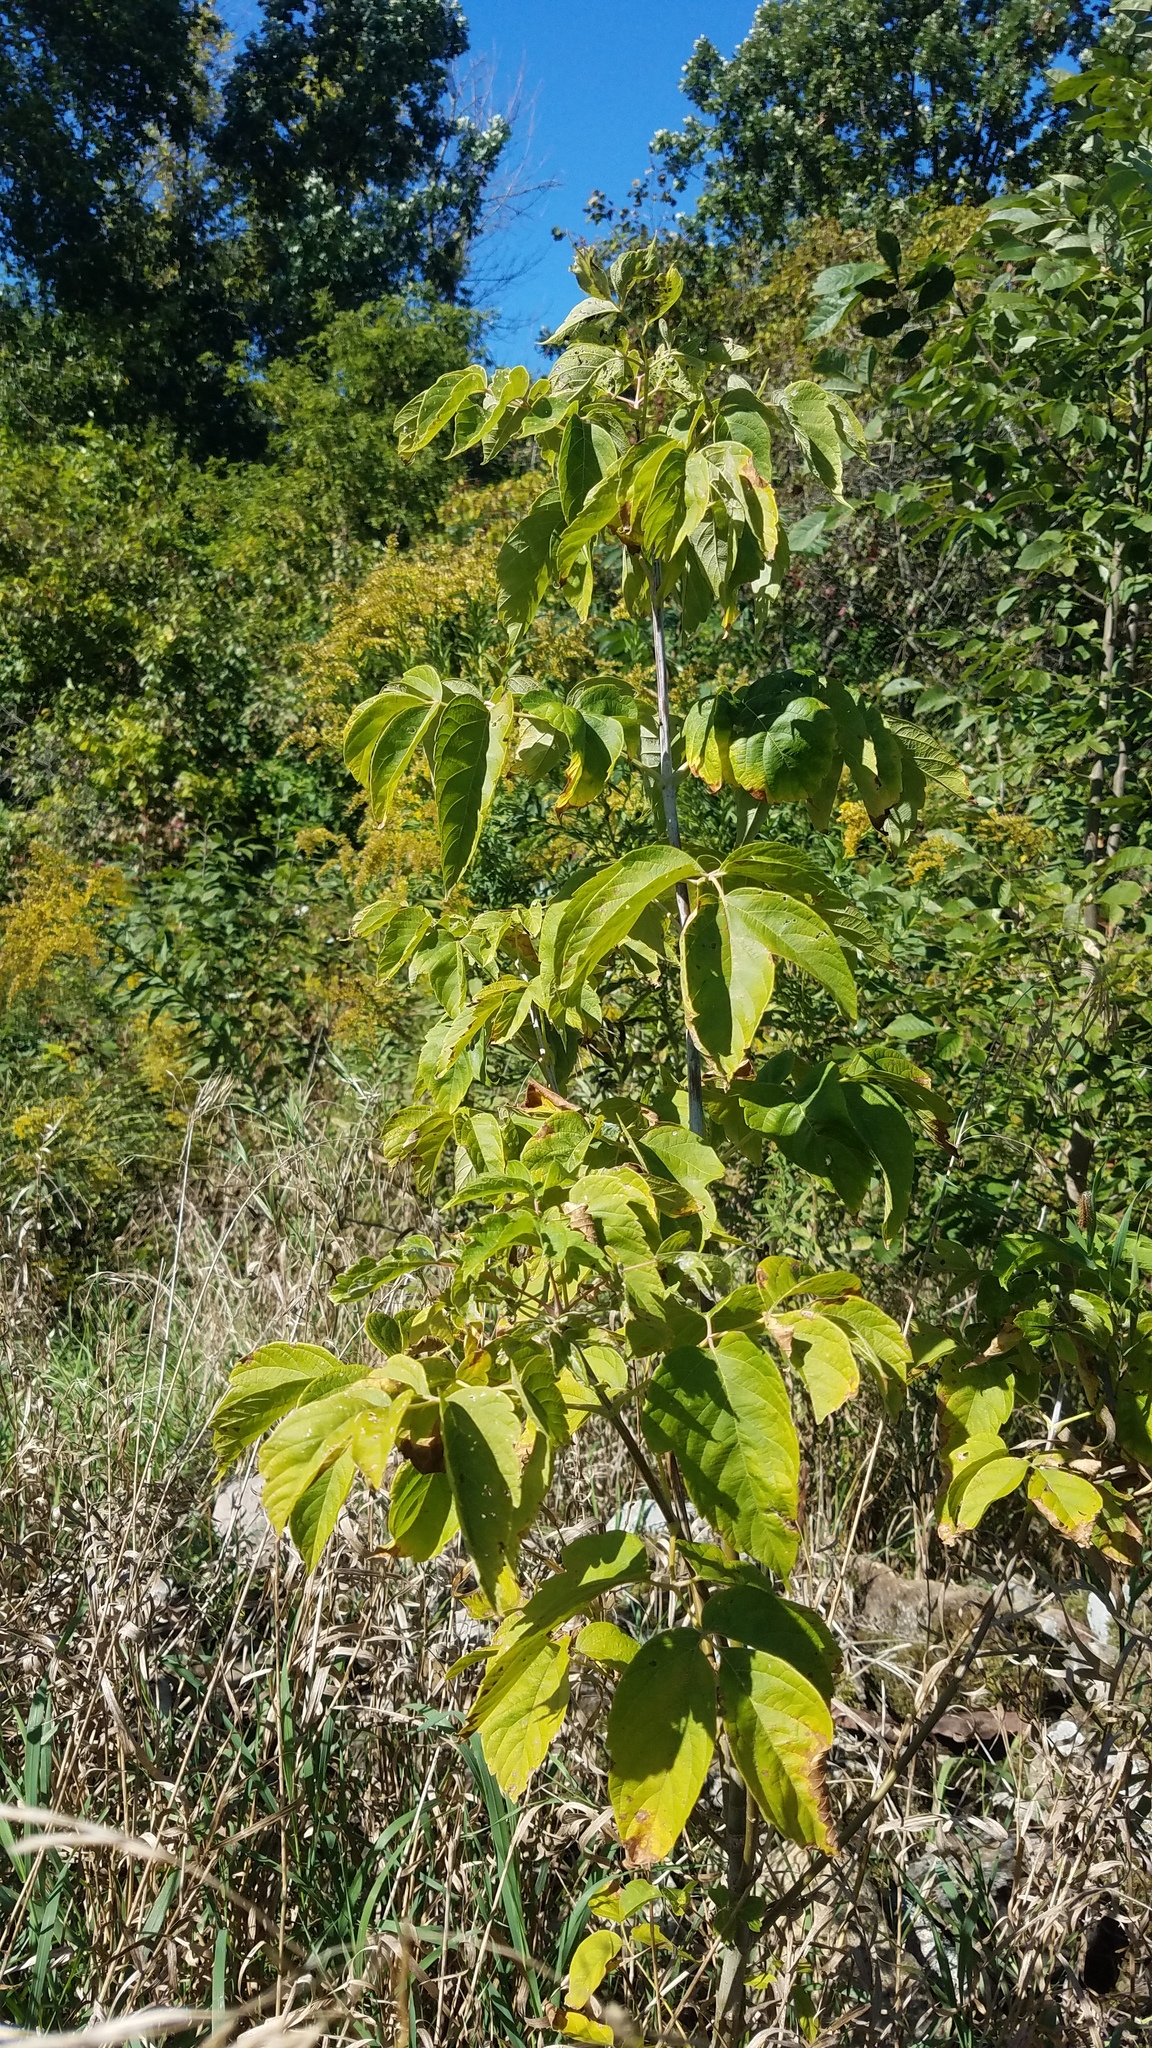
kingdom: Plantae
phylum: Tracheophyta
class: Magnoliopsida
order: Sapindales
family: Sapindaceae
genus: Acer
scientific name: Acer negundo
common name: Ashleaf maple
